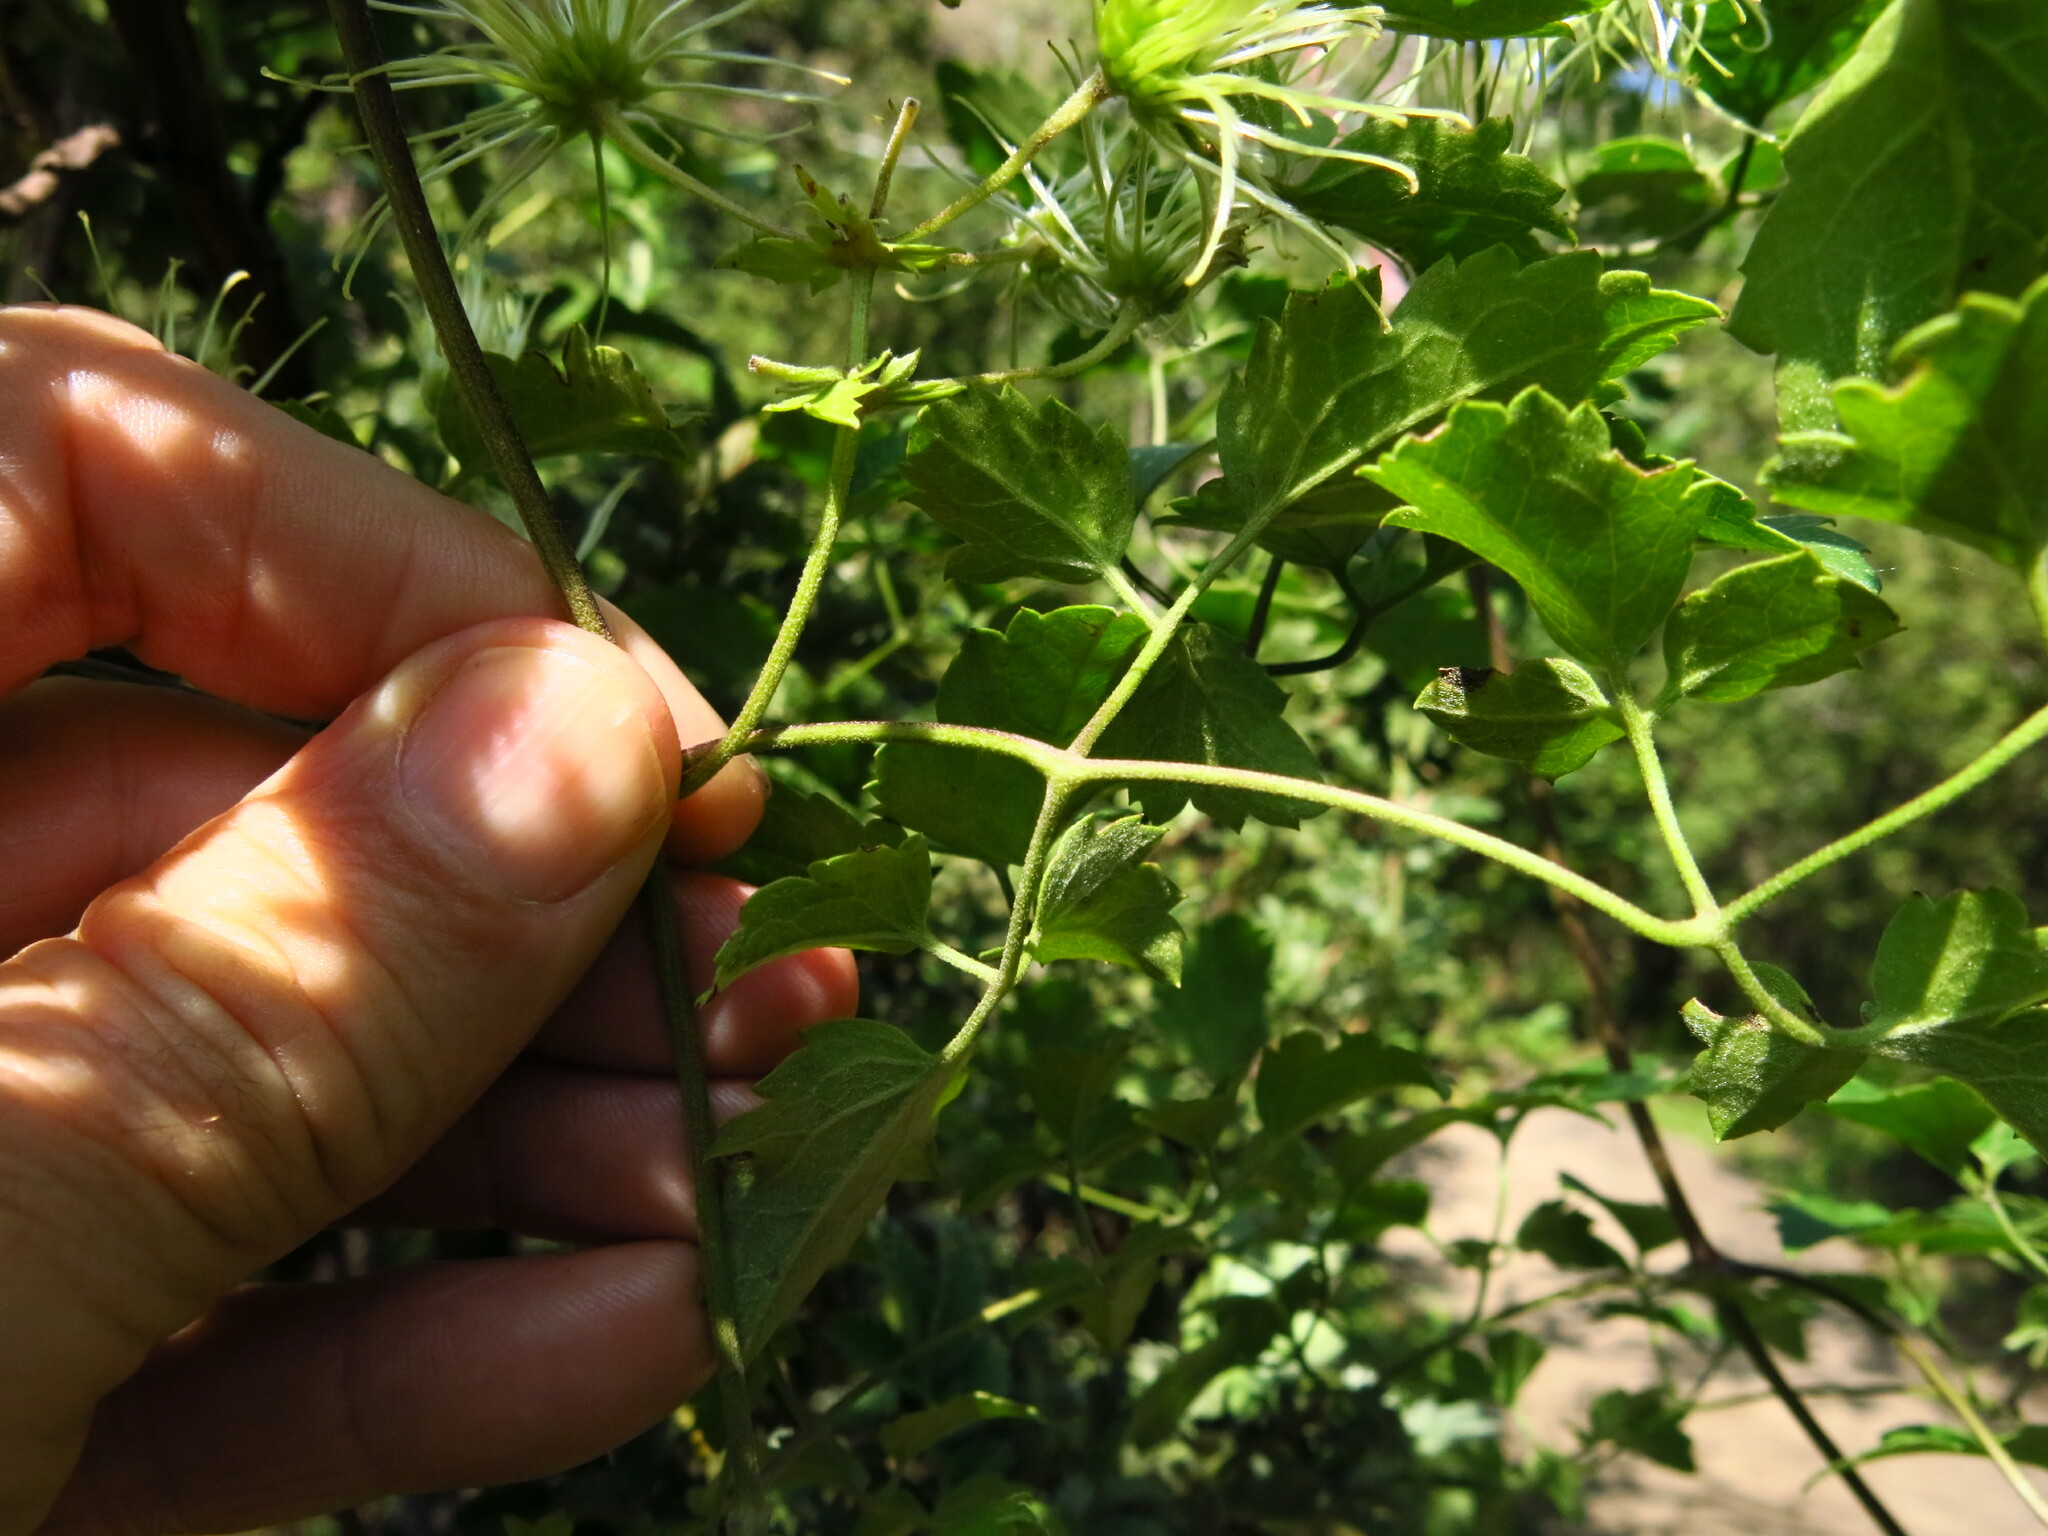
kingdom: Plantae
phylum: Tracheophyta
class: Magnoliopsida
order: Ranunculales
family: Ranunculaceae
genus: Clematis
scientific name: Clematis brachiata
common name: Traveler's-joy
